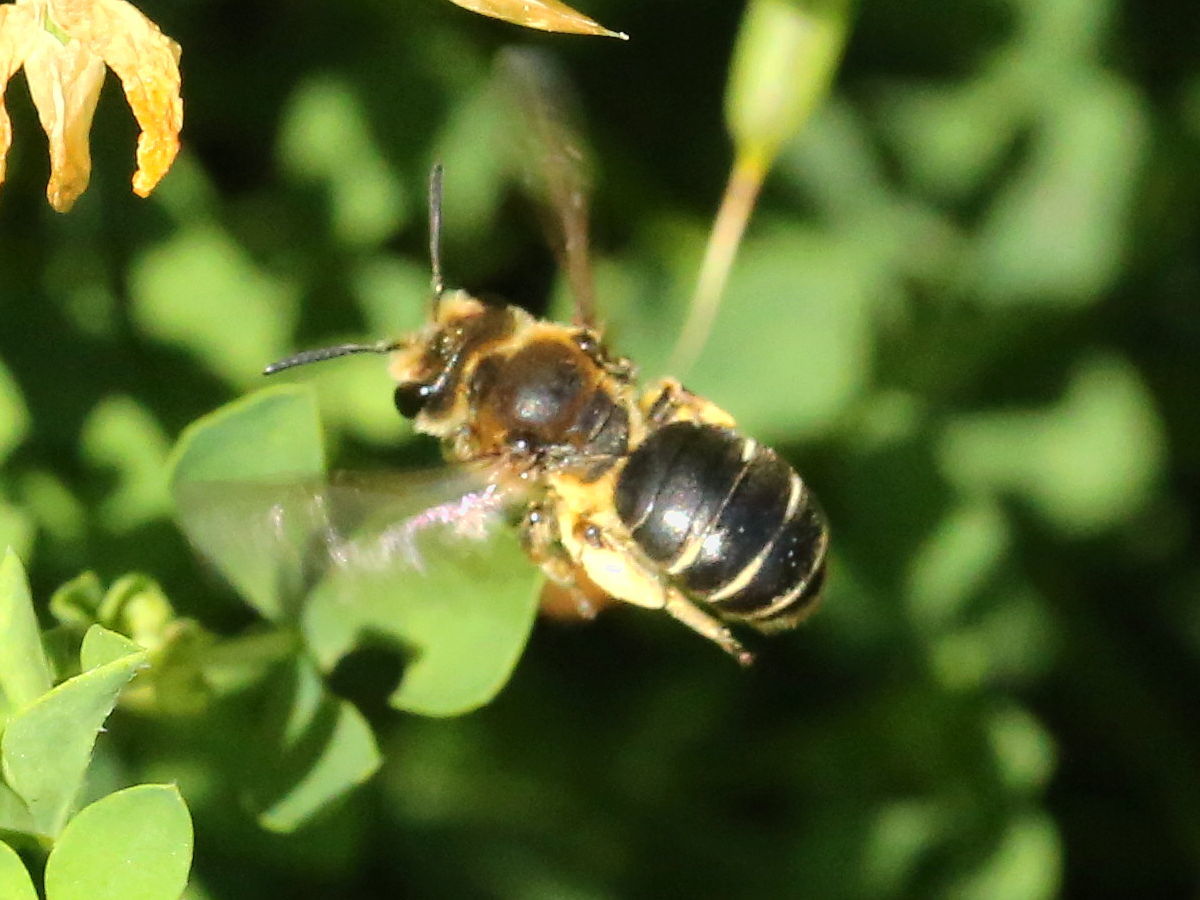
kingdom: Animalia
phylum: Arthropoda
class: Insecta
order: Hymenoptera
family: Andrenidae
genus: Andrena
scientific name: Andrena wilkella
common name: Wilke's mining bee
